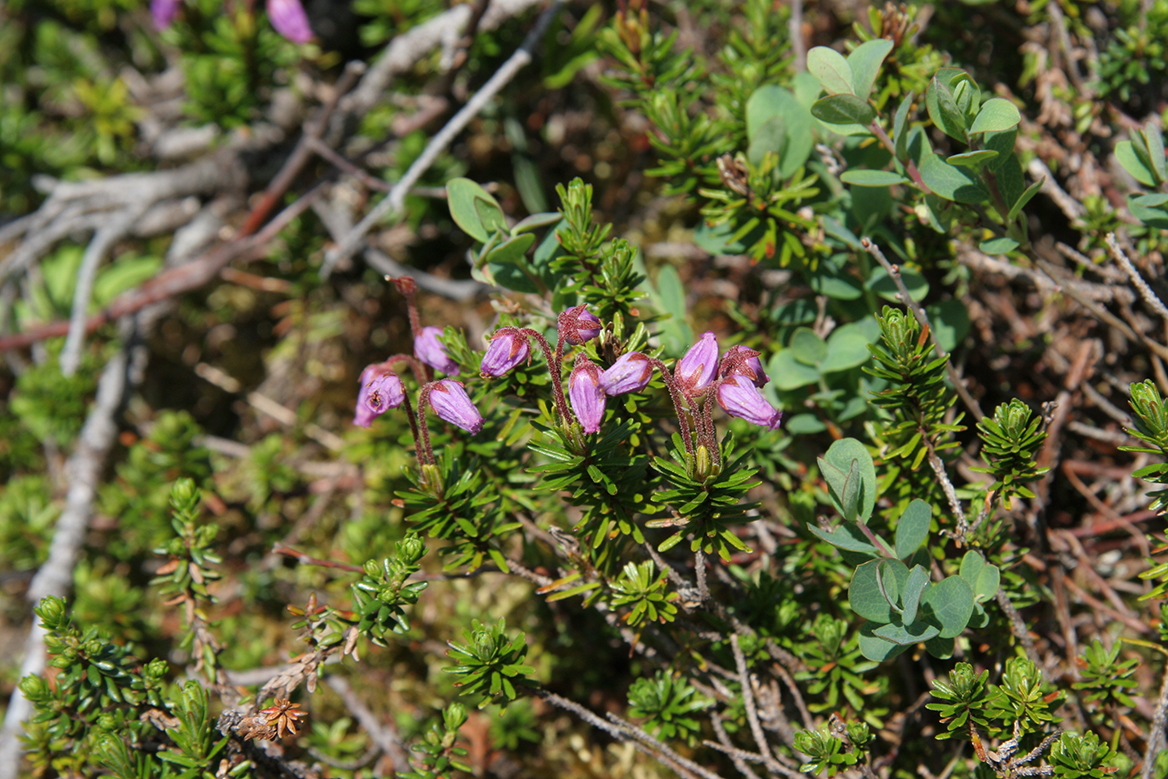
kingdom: Plantae
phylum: Tracheophyta
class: Magnoliopsida
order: Ericales
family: Ericaceae
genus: Phyllodoce
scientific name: Phyllodoce caerulea
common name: Blue heath
